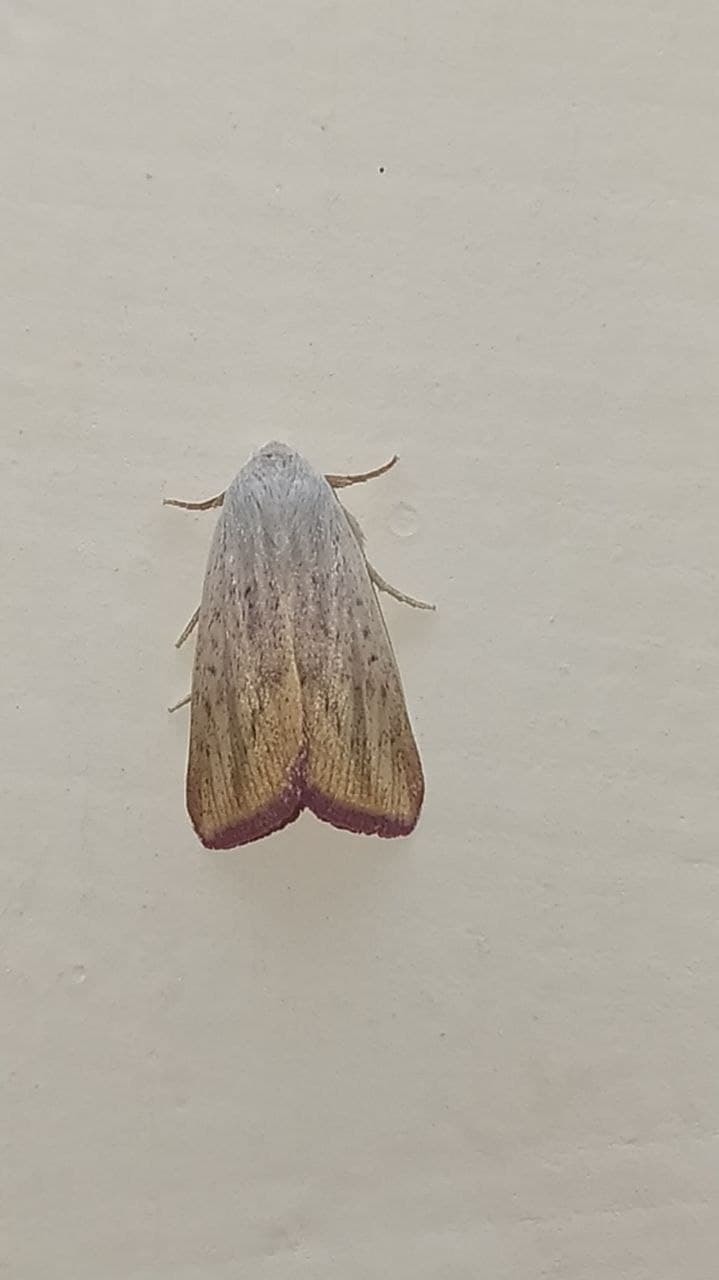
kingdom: Animalia
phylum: Arthropoda
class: Insecta
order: Lepidoptera
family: Noctuidae
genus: Adisura
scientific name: Adisura atkinsoni
